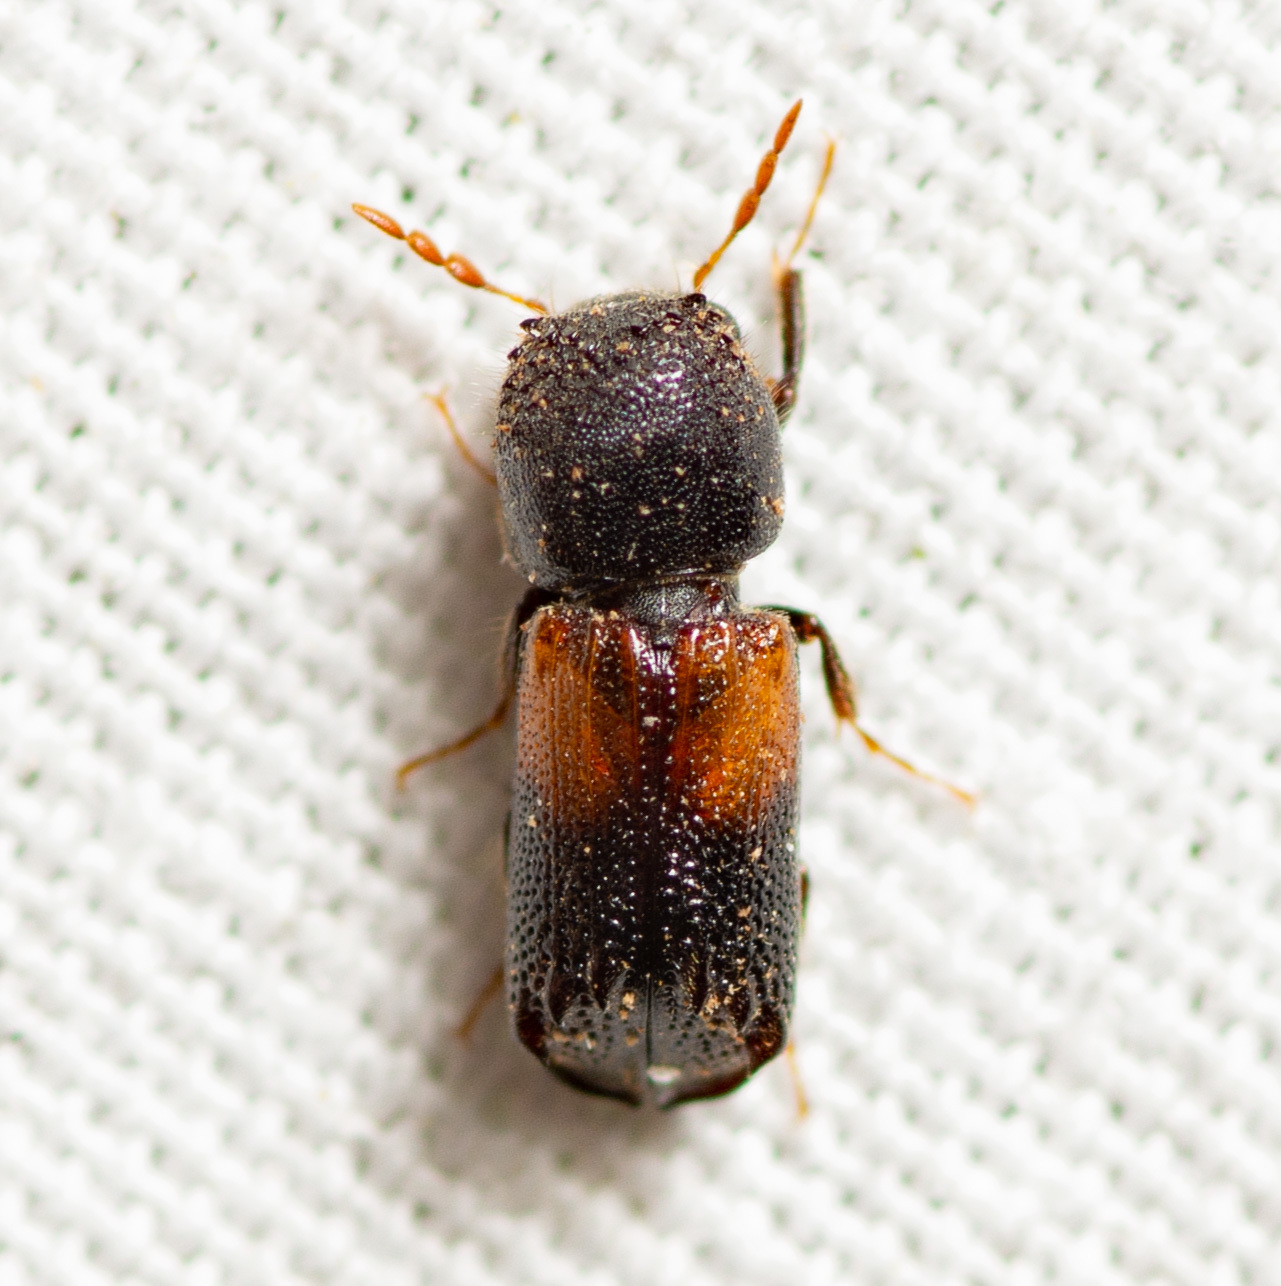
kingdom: Animalia
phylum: Arthropoda
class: Insecta
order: Coleoptera
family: Bostrichidae
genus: Xylobiops
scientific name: Xylobiops basilaris
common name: Red-shouldered bostrichid
